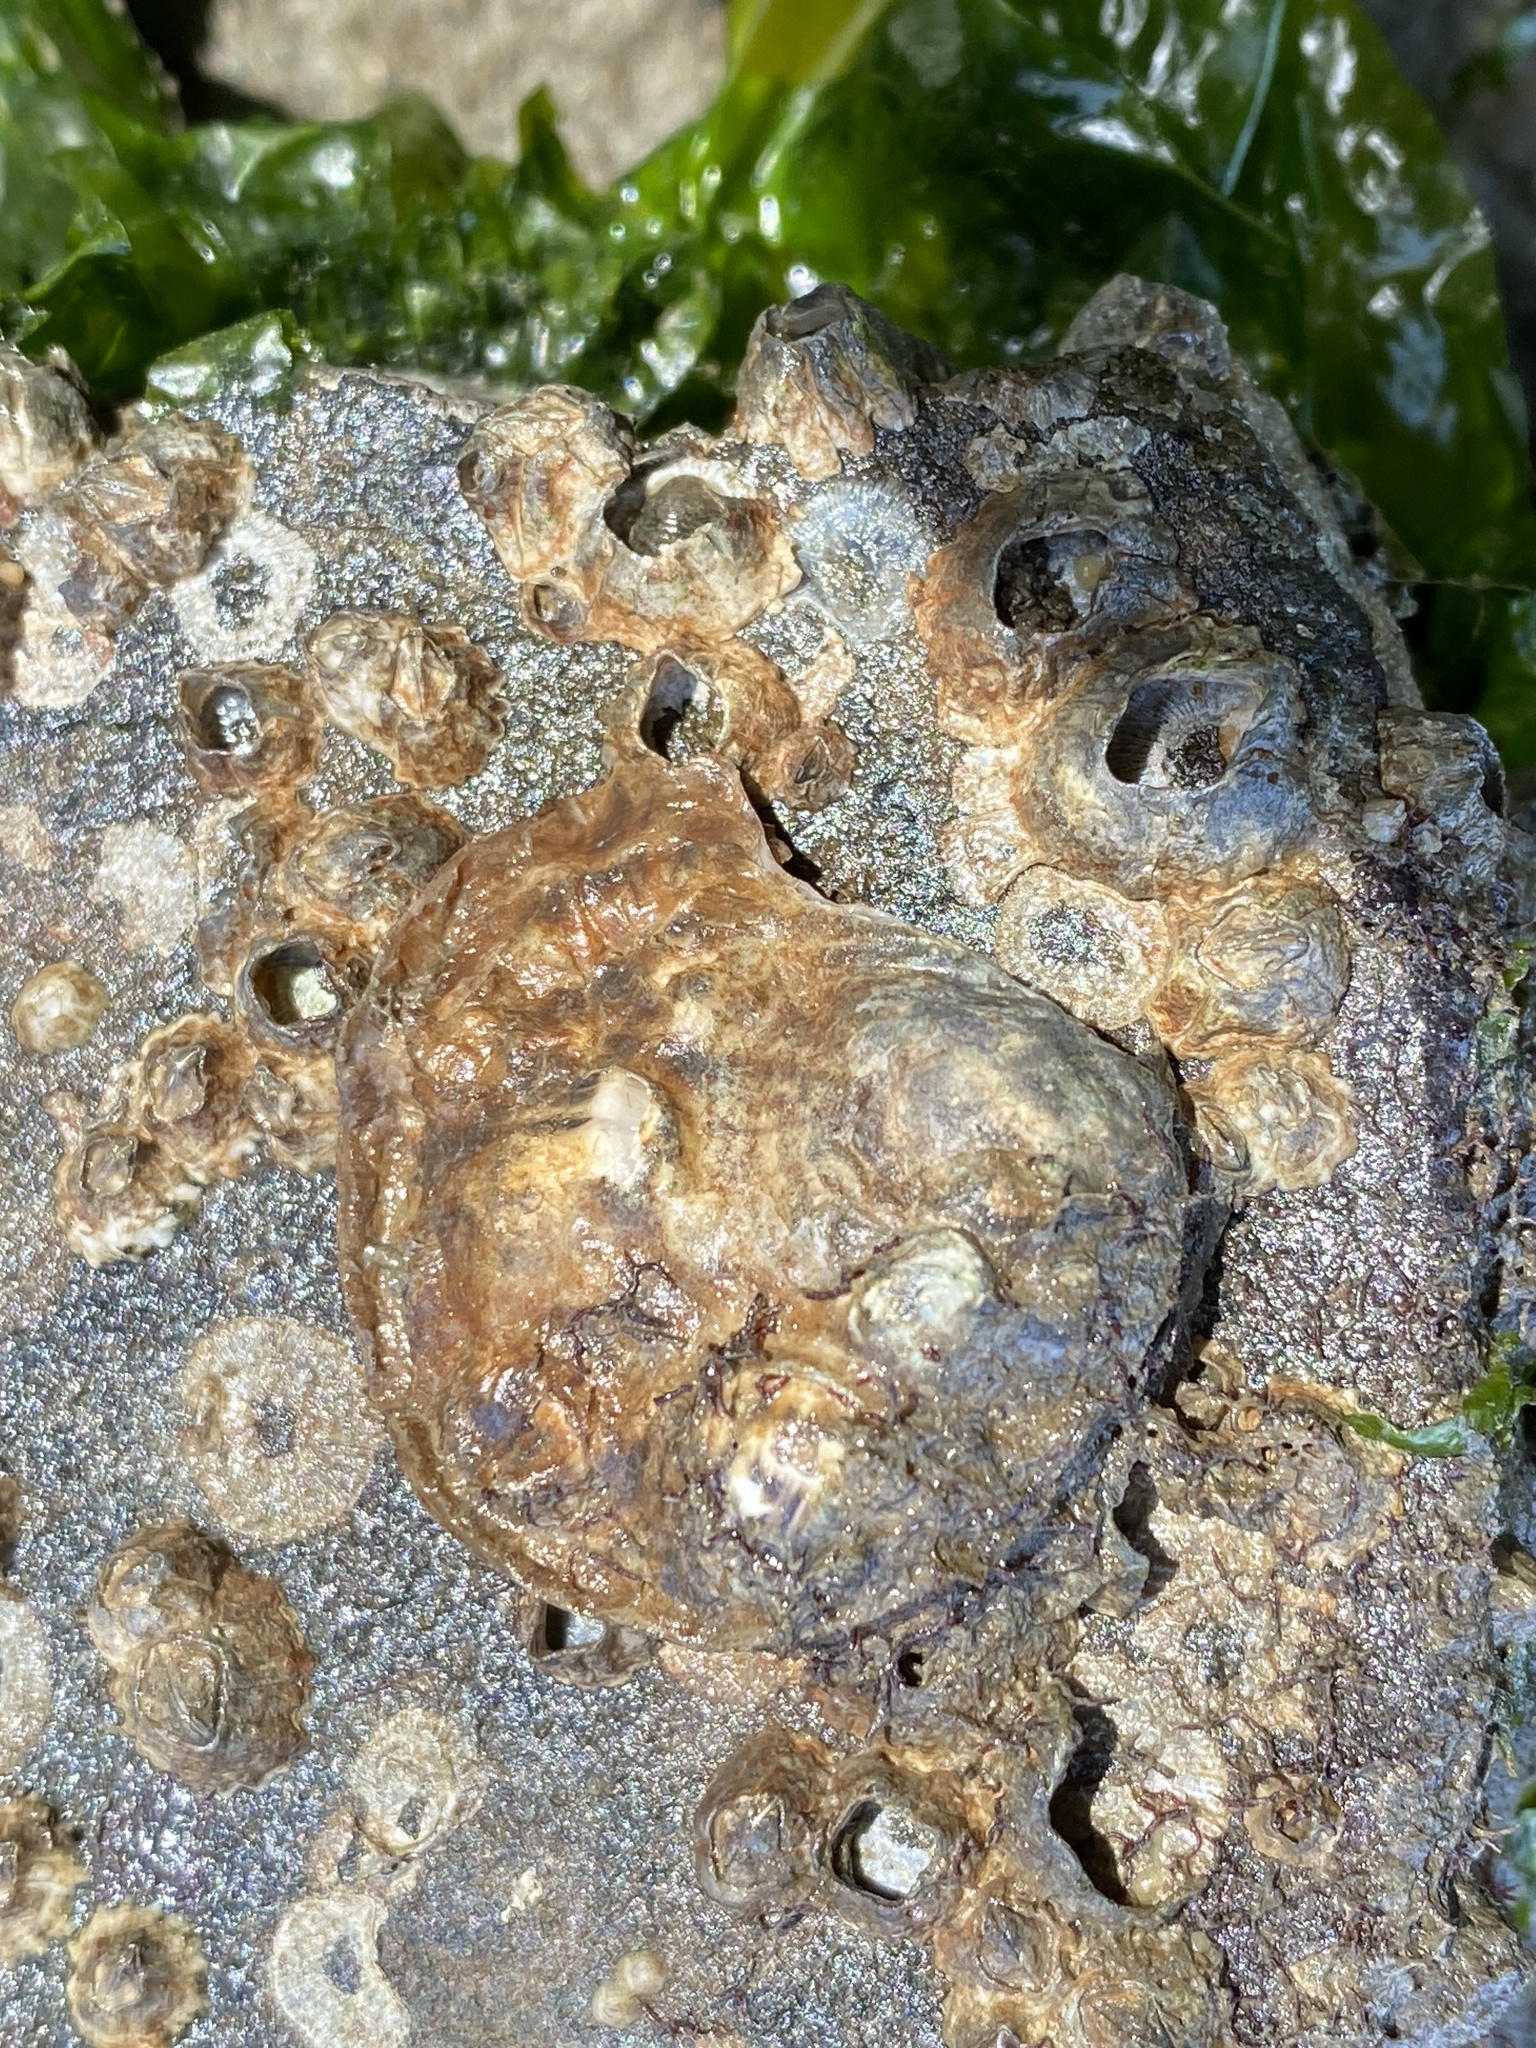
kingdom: Animalia
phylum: Mollusca
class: Bivalvia
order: Ostreida
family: Ostreidae
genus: Ostrea
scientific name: Ostrea lurida
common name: Olympia flat oyster
